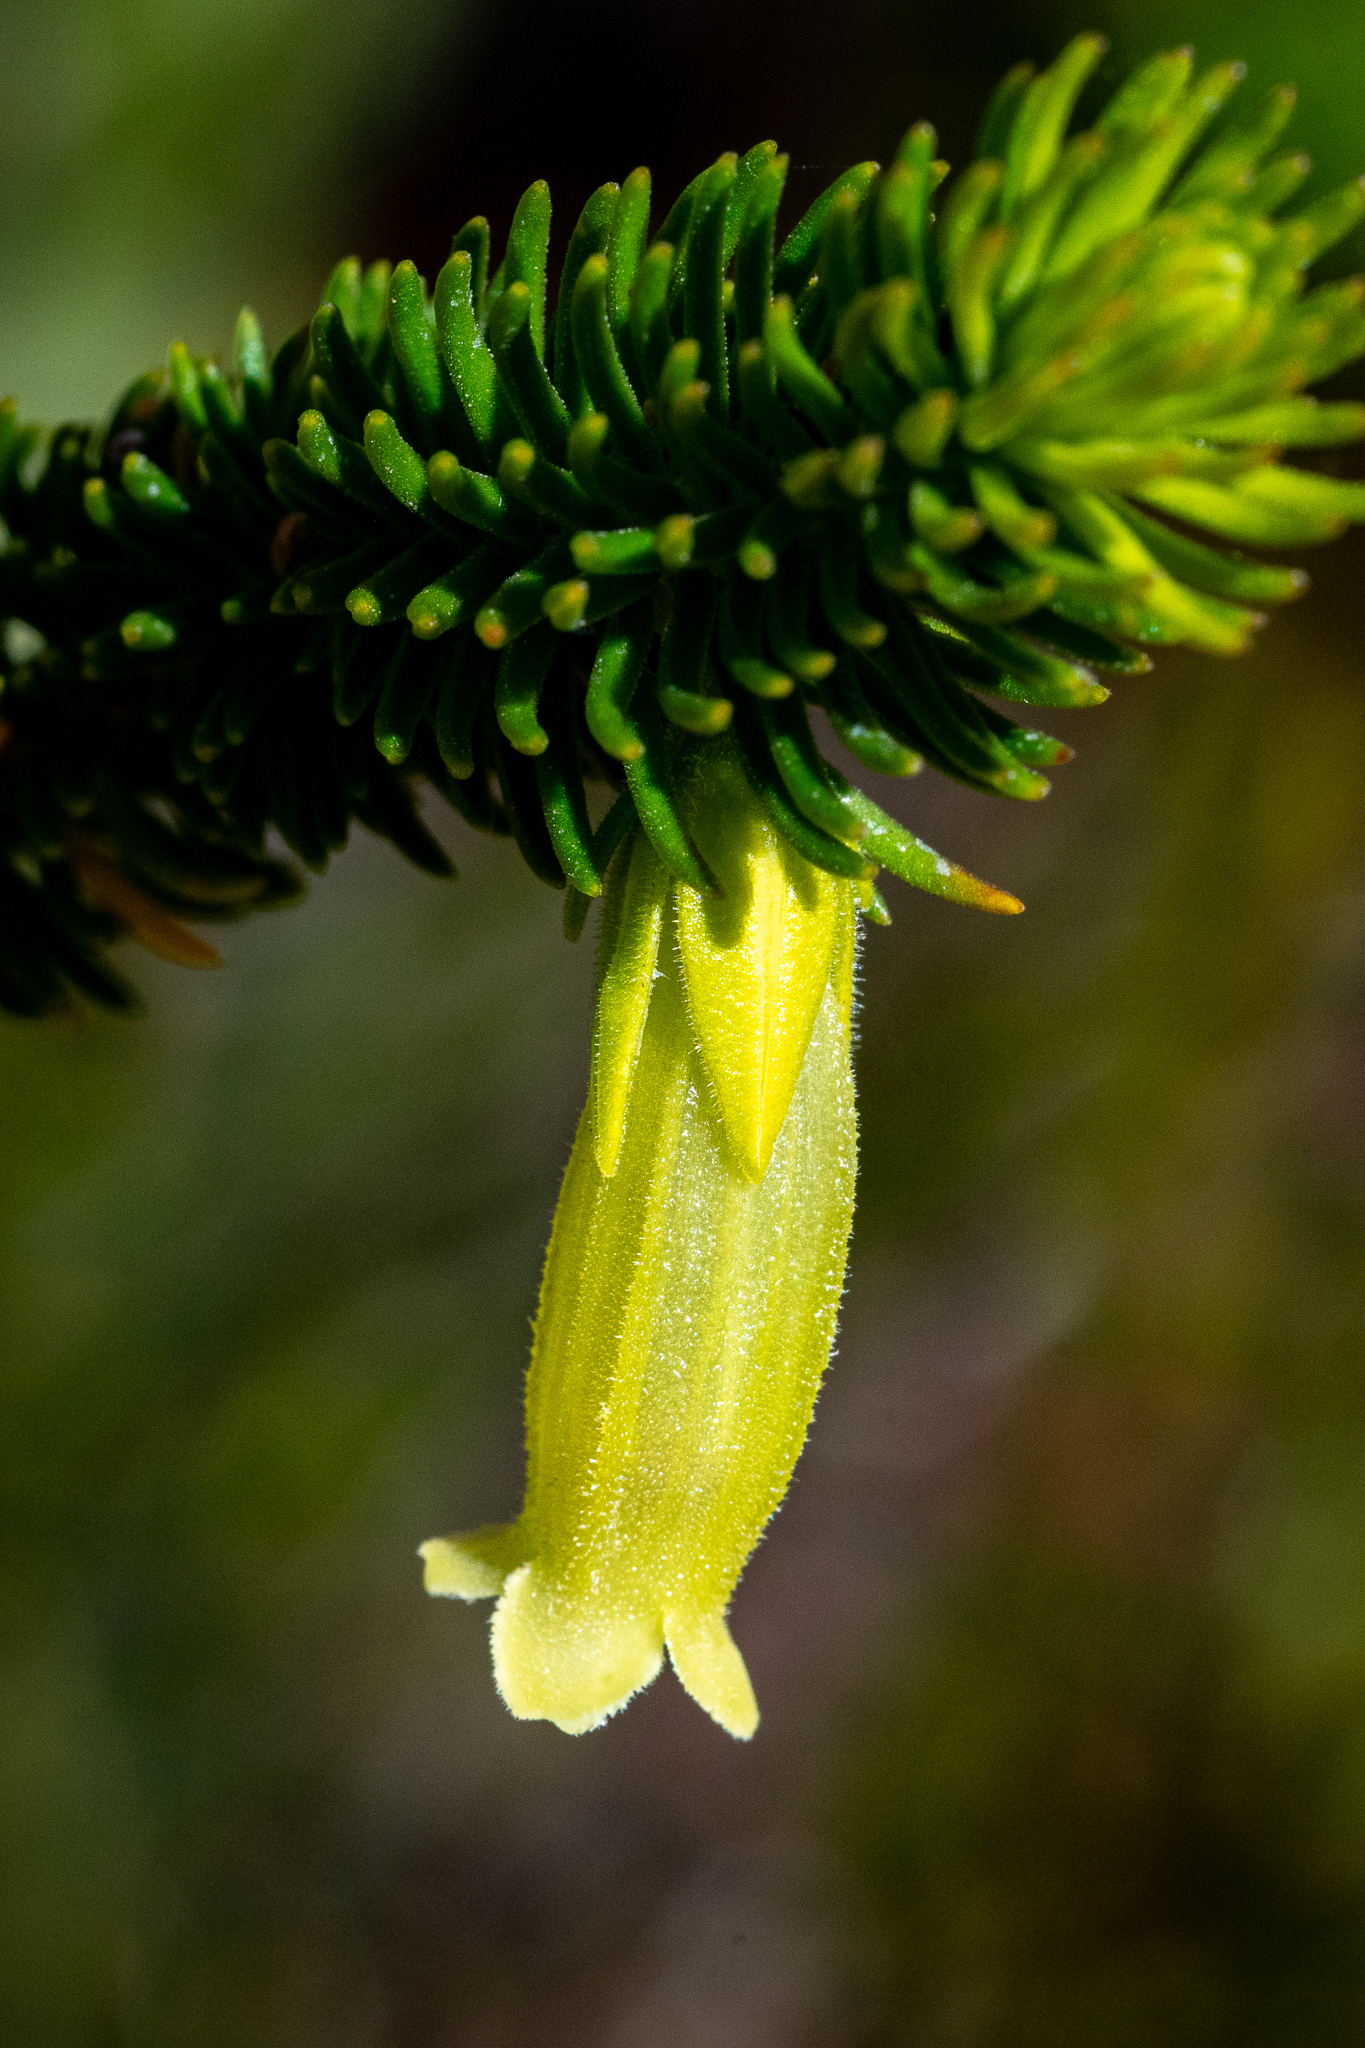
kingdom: Plantae
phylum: Tracheophyta
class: Magnoliopsida
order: Ericales
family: Ericaceae
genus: Erica
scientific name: Erica viscaria
